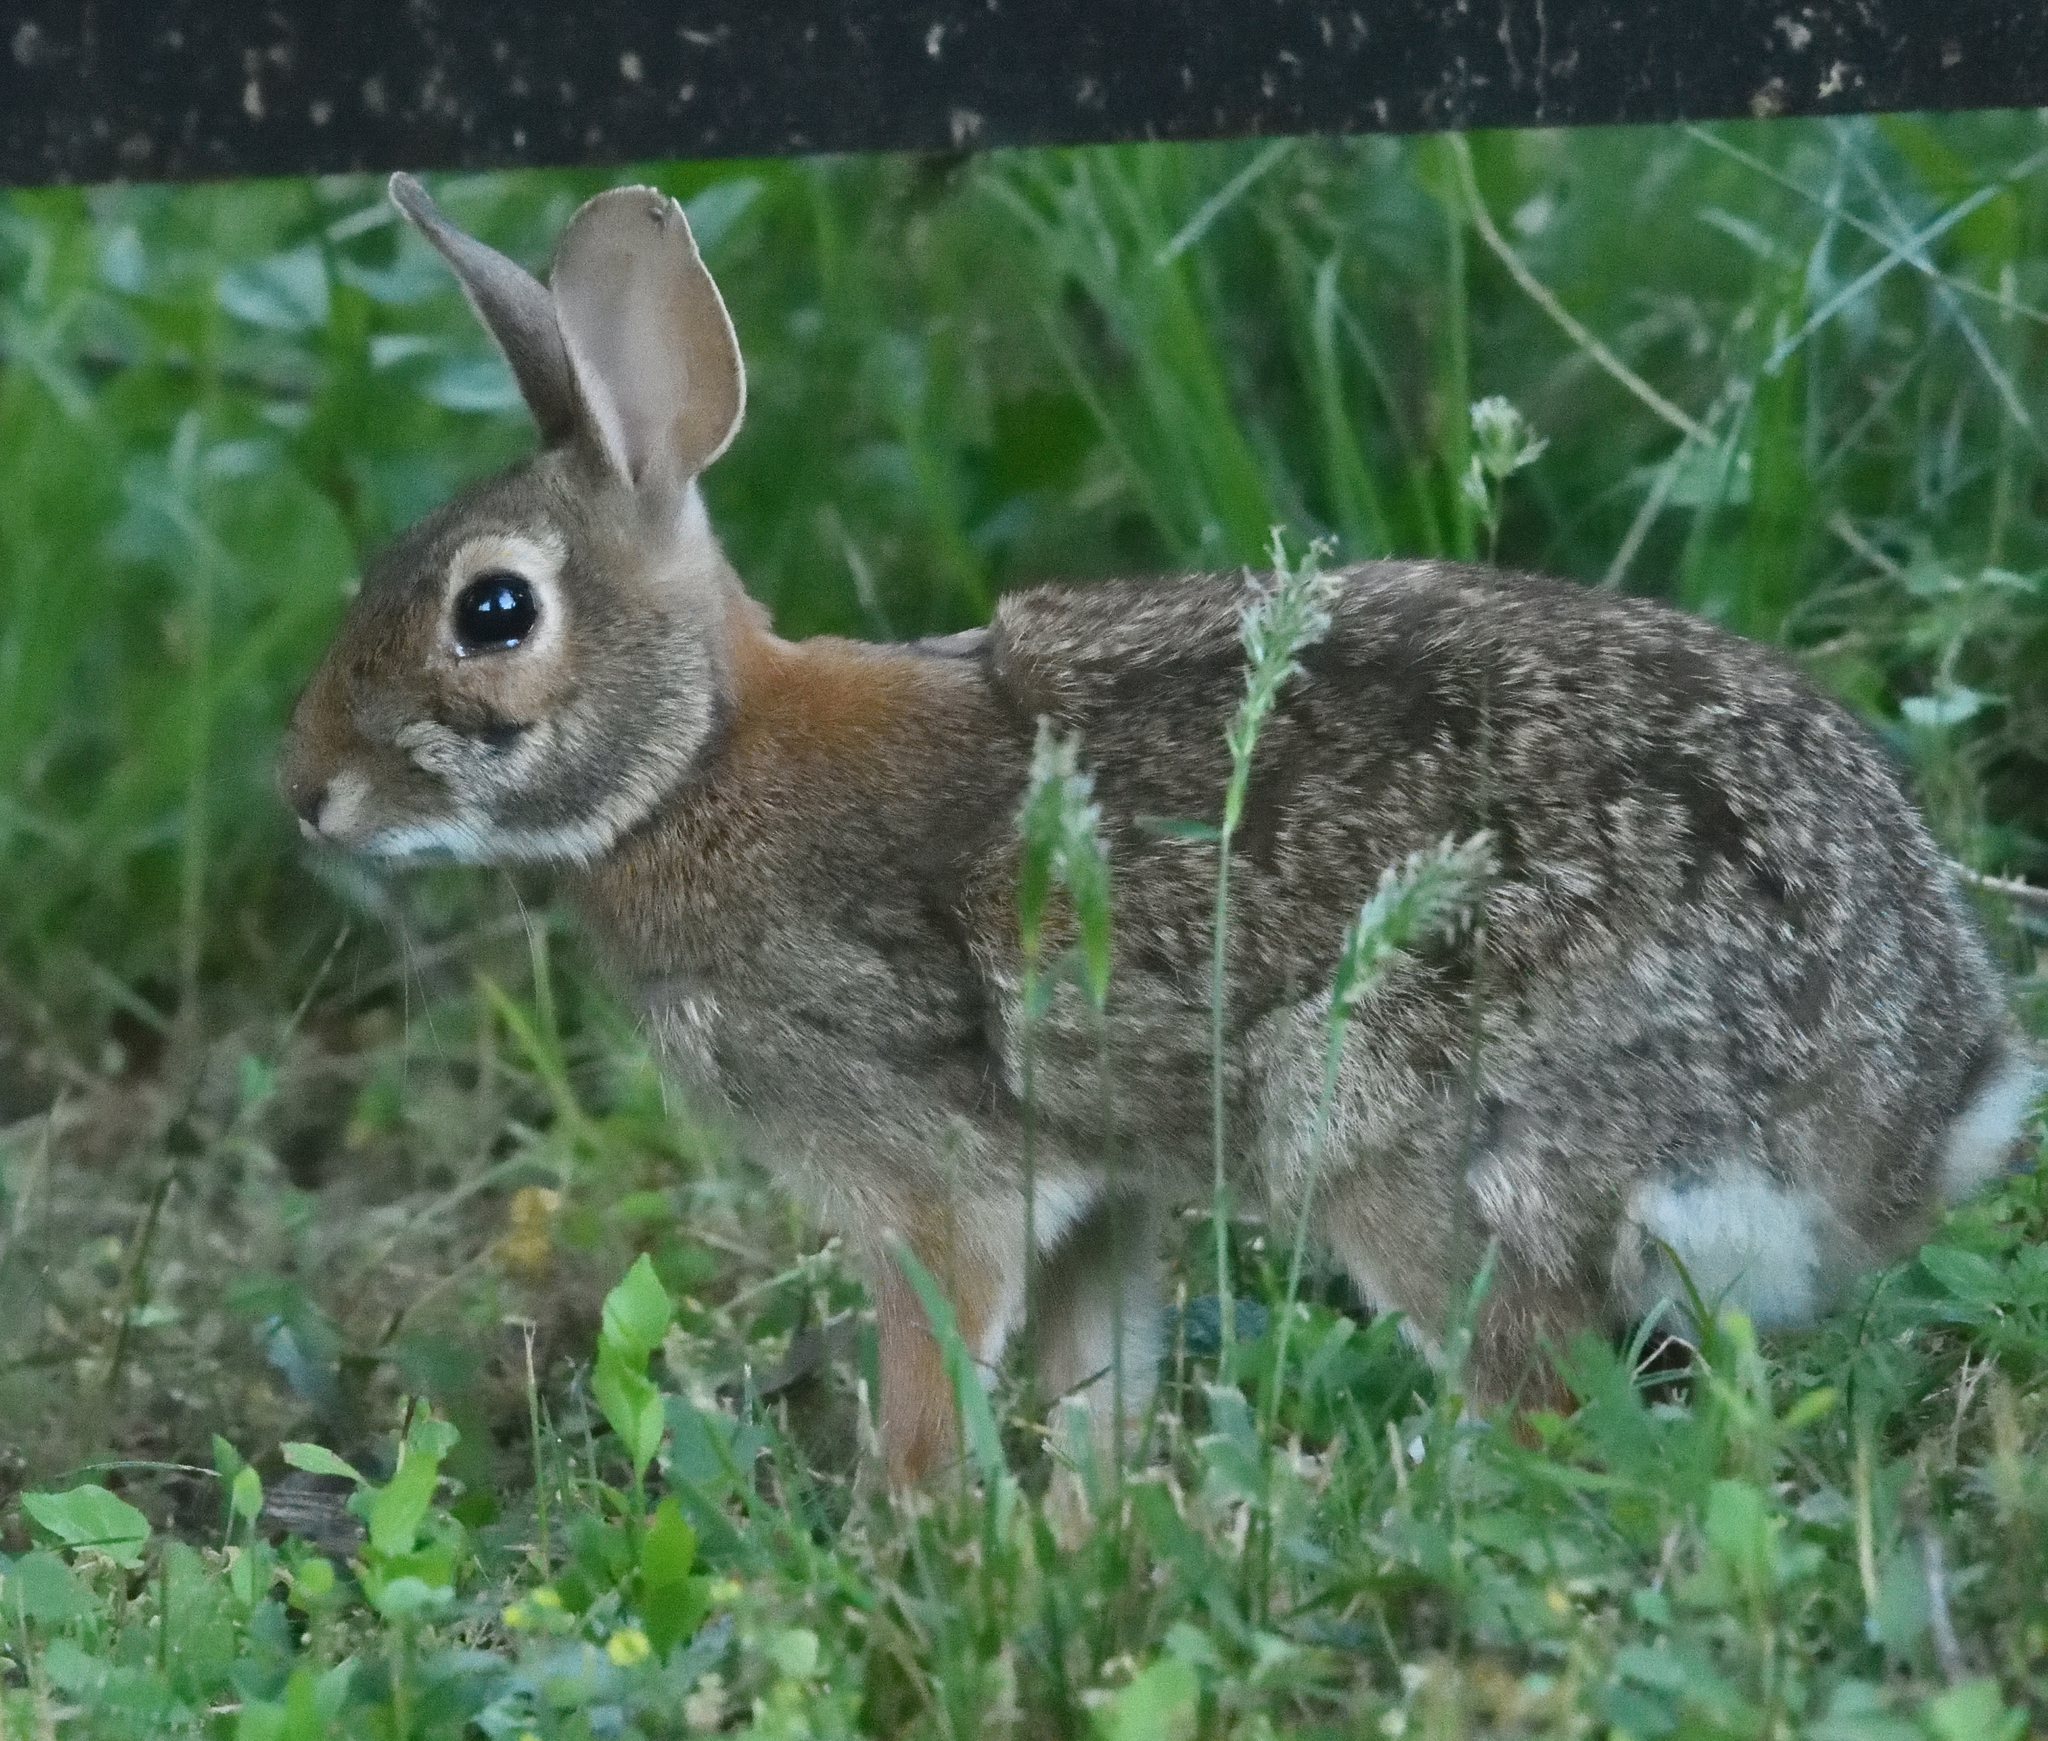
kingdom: Animalia
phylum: Chordata
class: Mammalia
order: Lagomorpha
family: Leporidae
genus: Sylvilagus
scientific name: Sylvilagus floridanus
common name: Eastern cottontail
